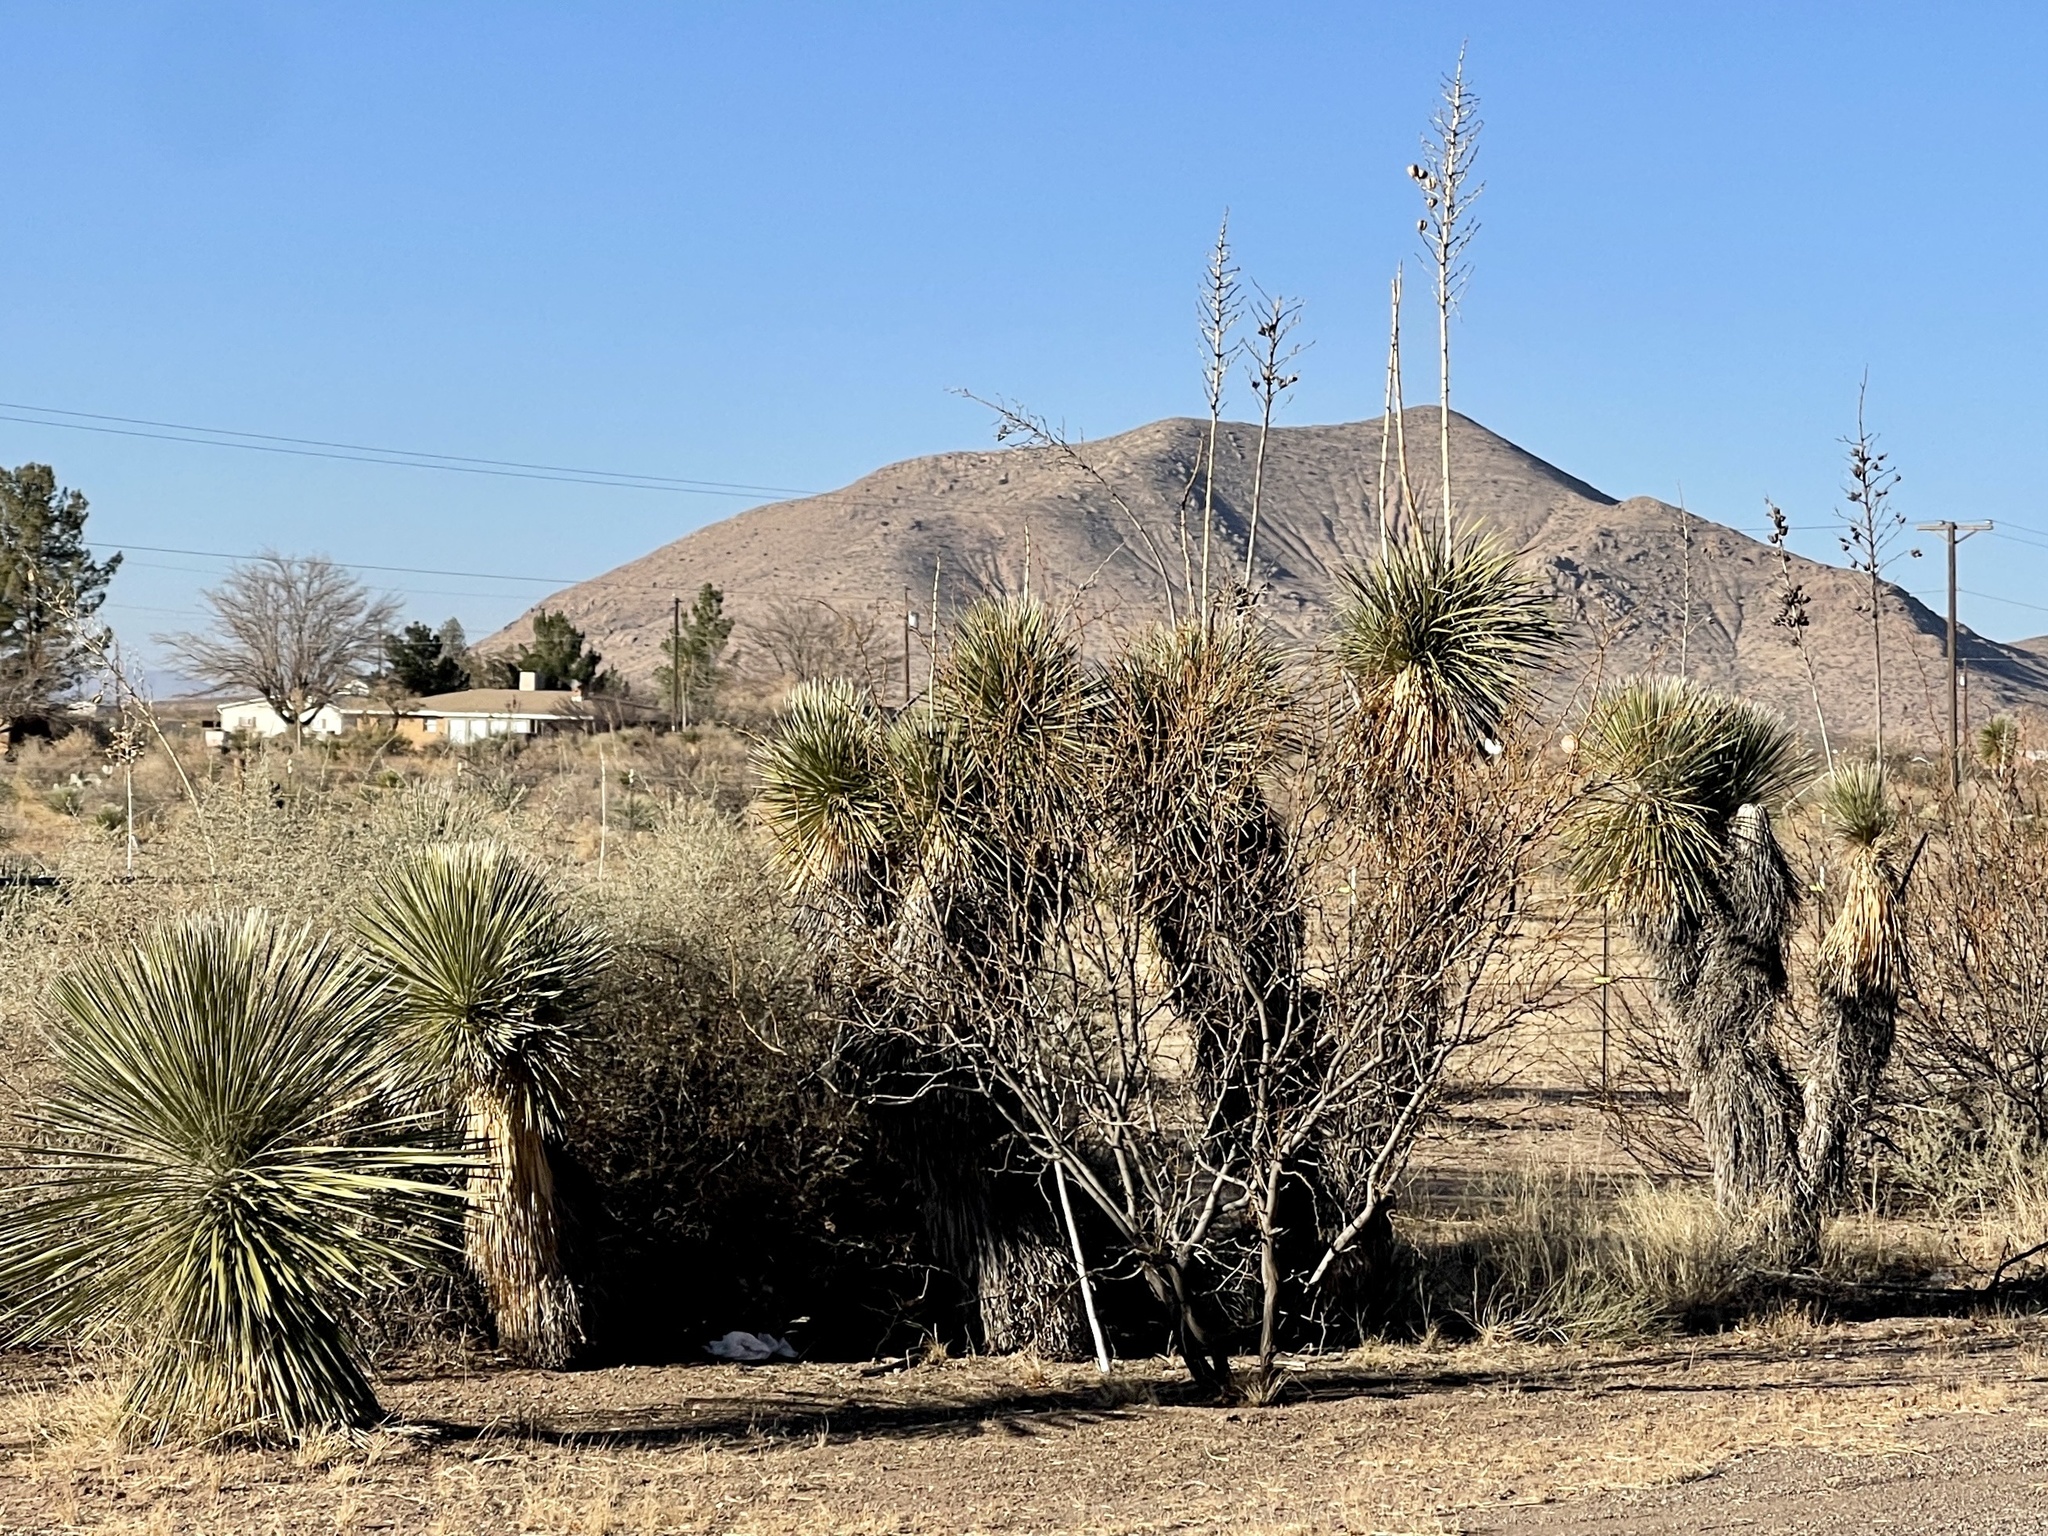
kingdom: Plantae
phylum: Tracheophyta
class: Liliopsida
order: Asparagales
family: Asparagaceae
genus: Yucca
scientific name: Yucca elata
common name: Palmella
